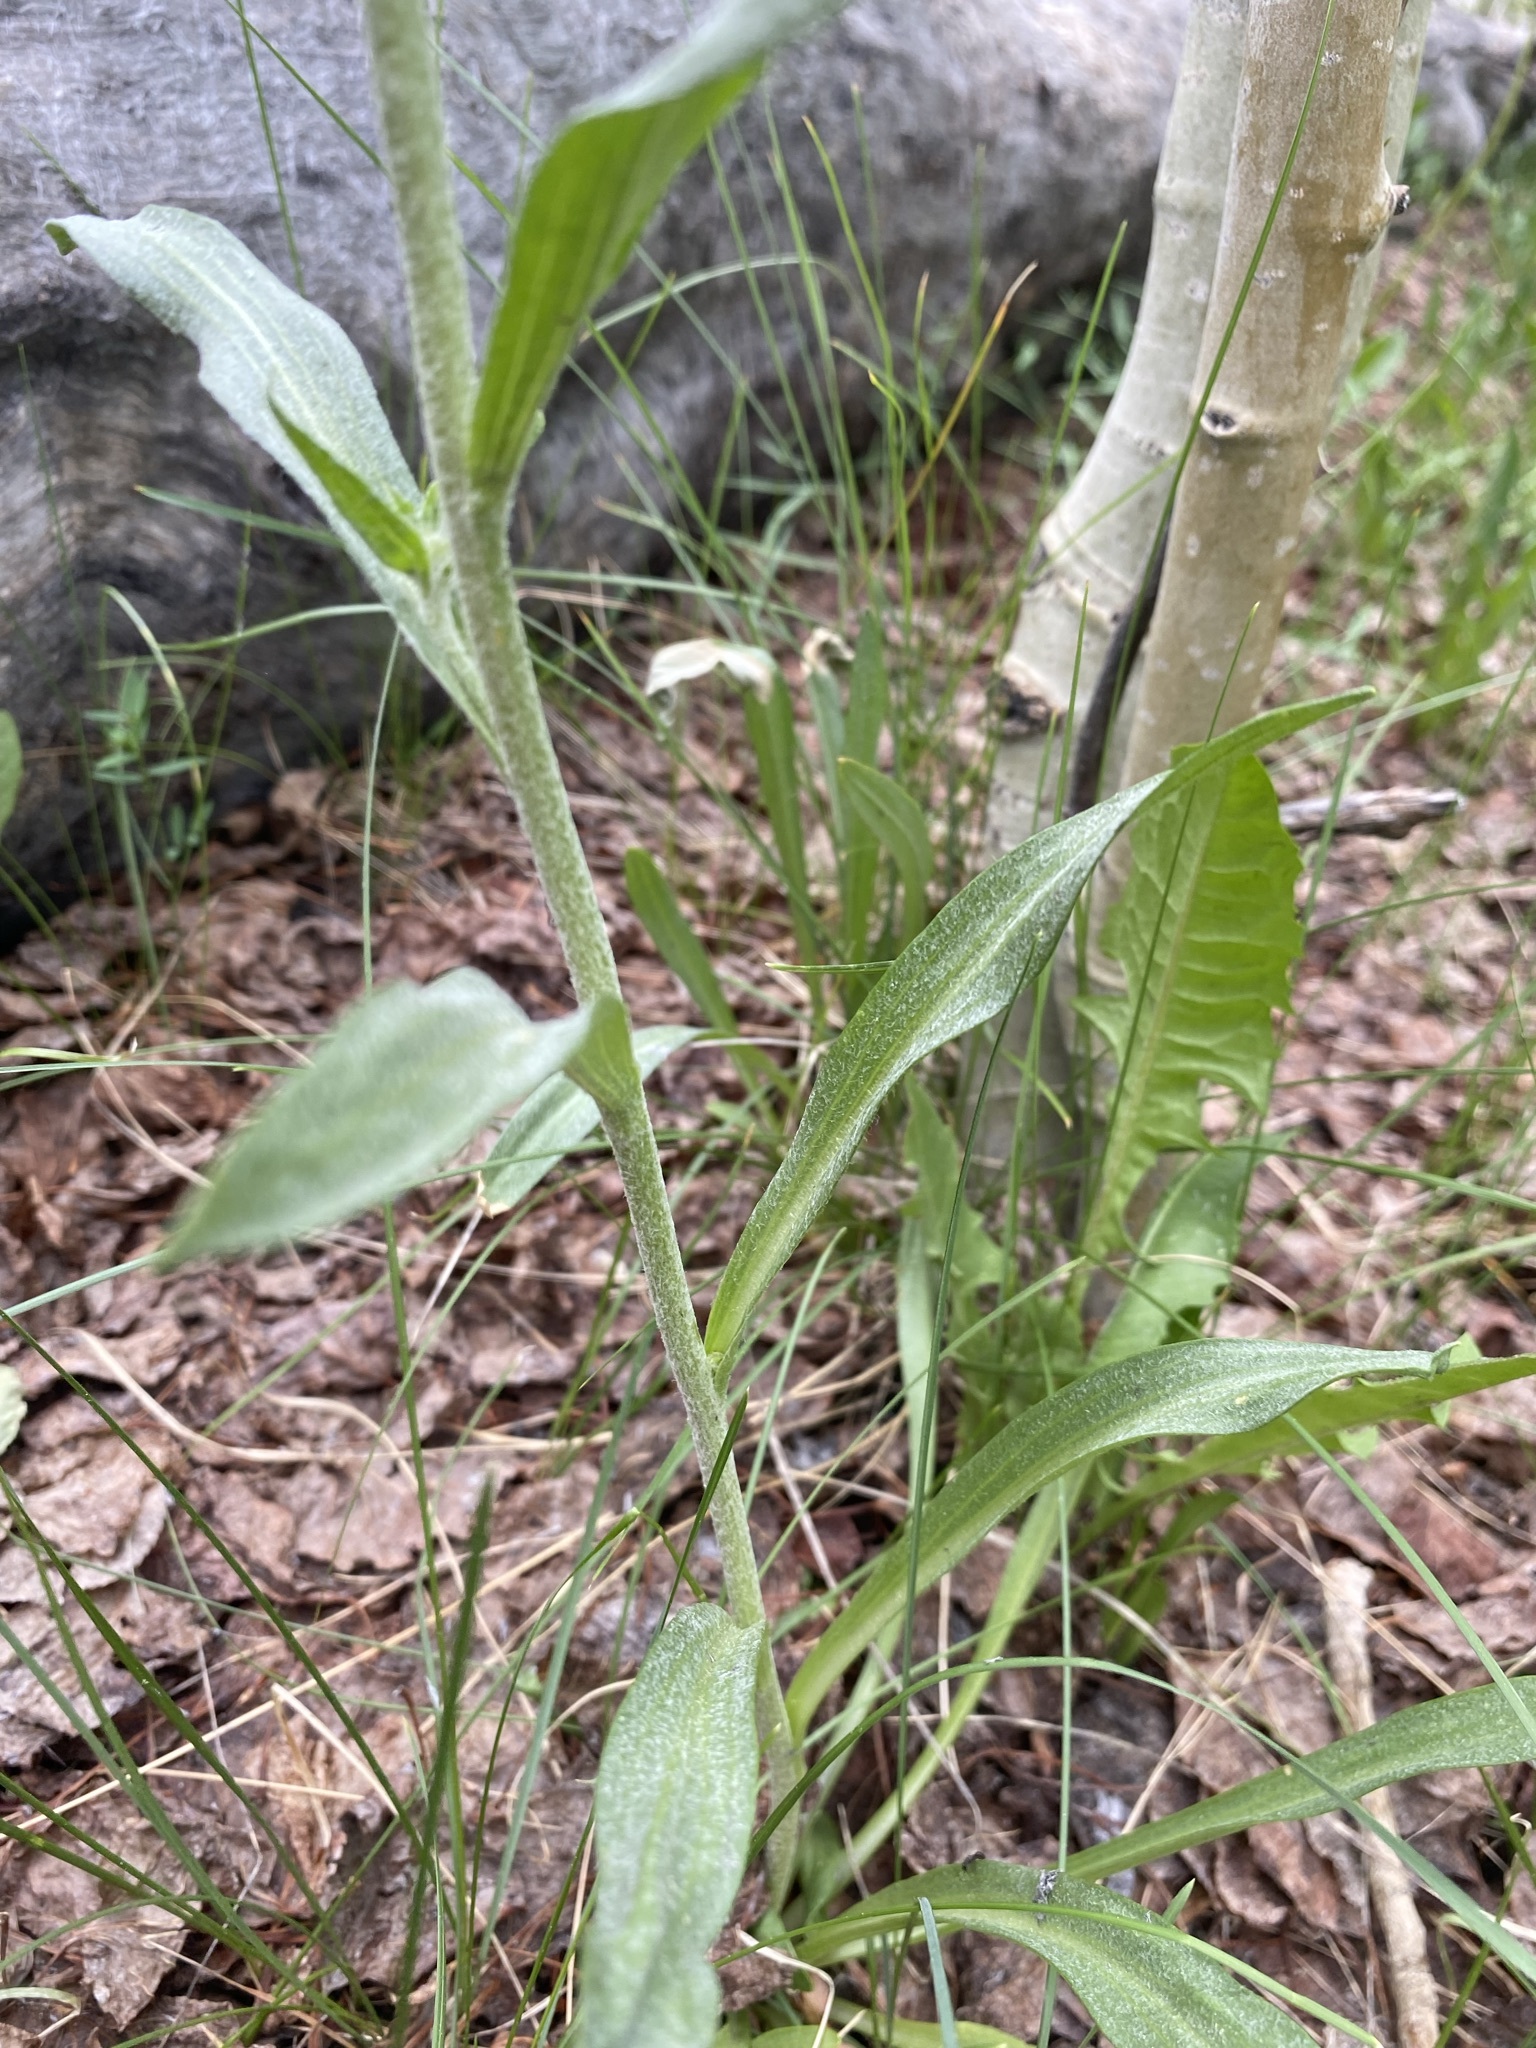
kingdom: Plantae
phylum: Tracheophyta
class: Magnoliopsida
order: Asterales
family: Asteraceae
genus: Hymenoxys
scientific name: Hymenoxys hoopesii
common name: Orange-sneezeweed
